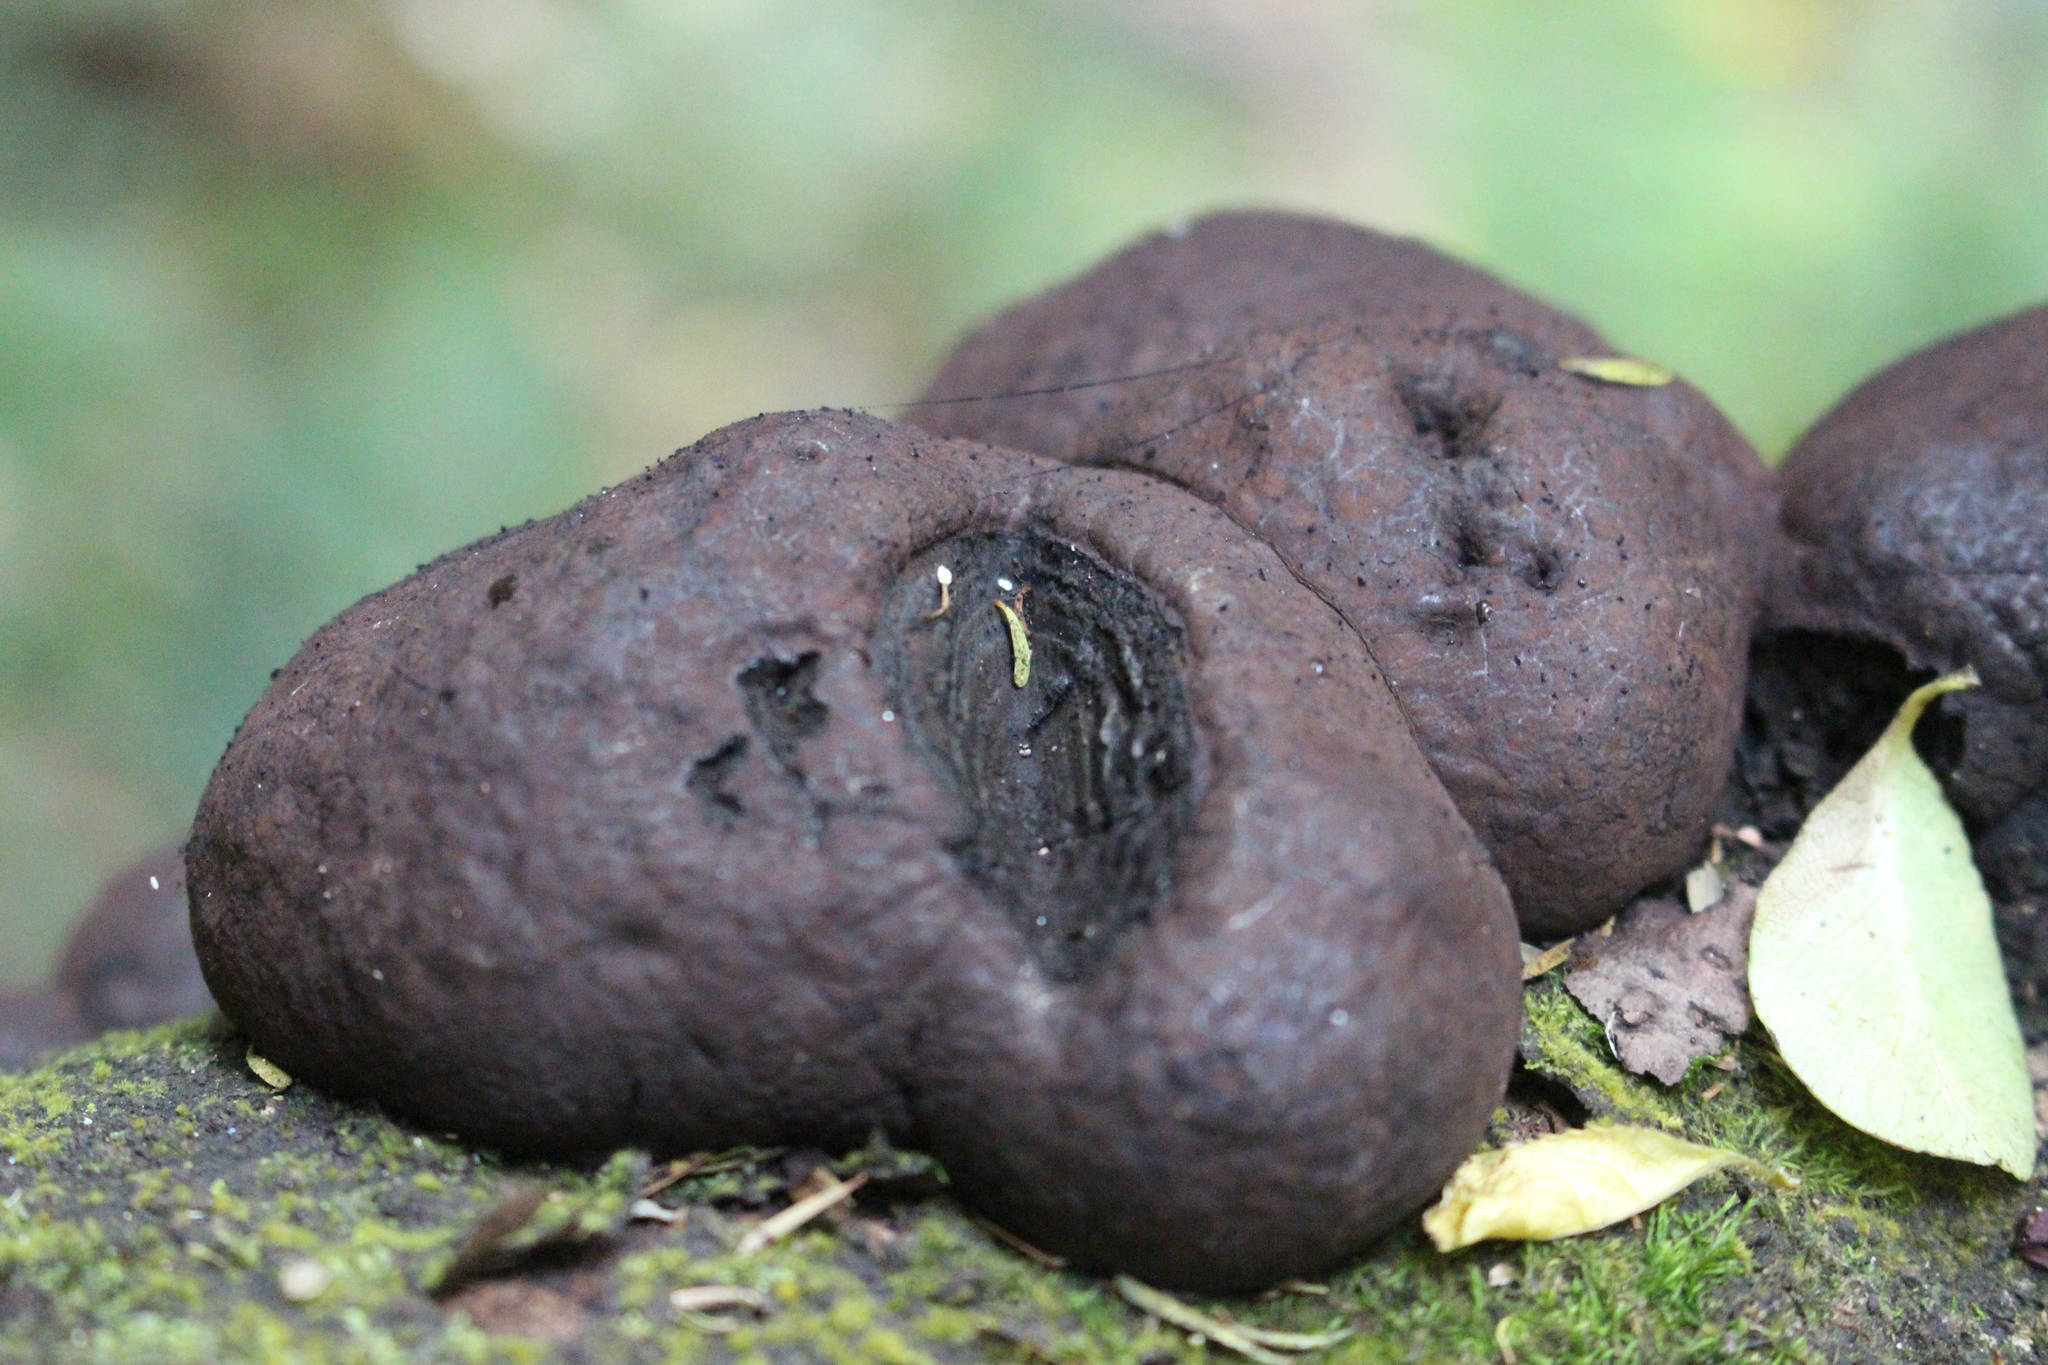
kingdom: Fungi
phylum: Ascomycota
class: Sordariomycetes
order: Xylariales
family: Hypoxylaceae
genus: Daldinia
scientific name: Daldinia
